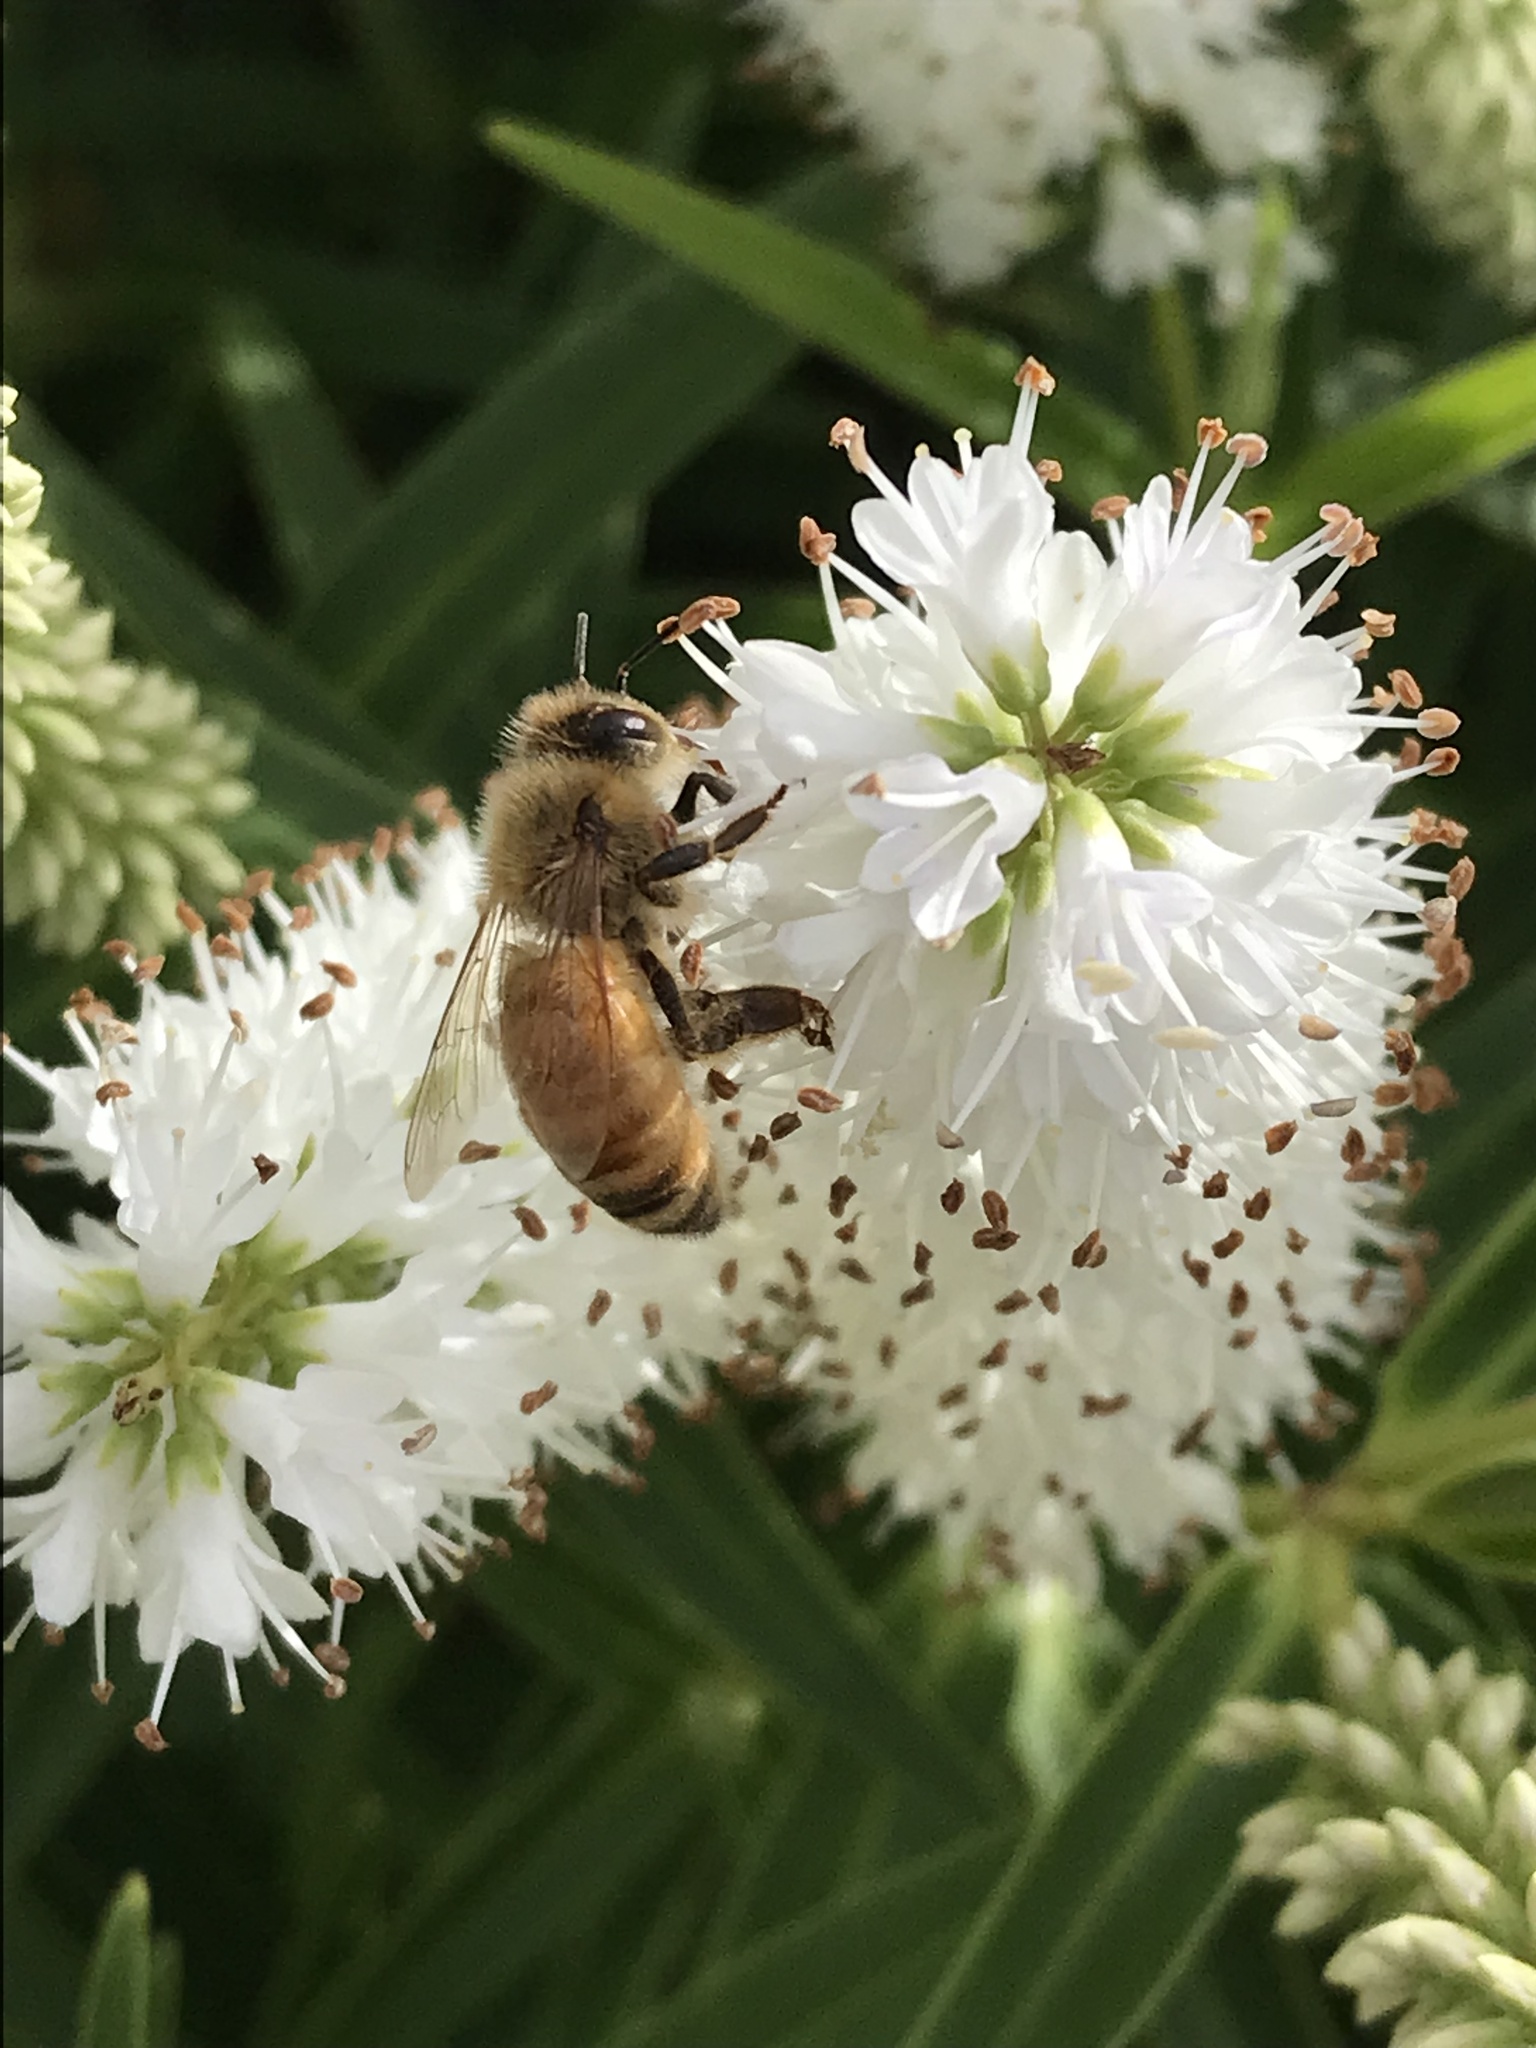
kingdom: Animalia
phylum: Arthropoda
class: Insecta
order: Hymenoptera
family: Apidae
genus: Apis
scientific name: Apis mellifera
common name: Honey bee
